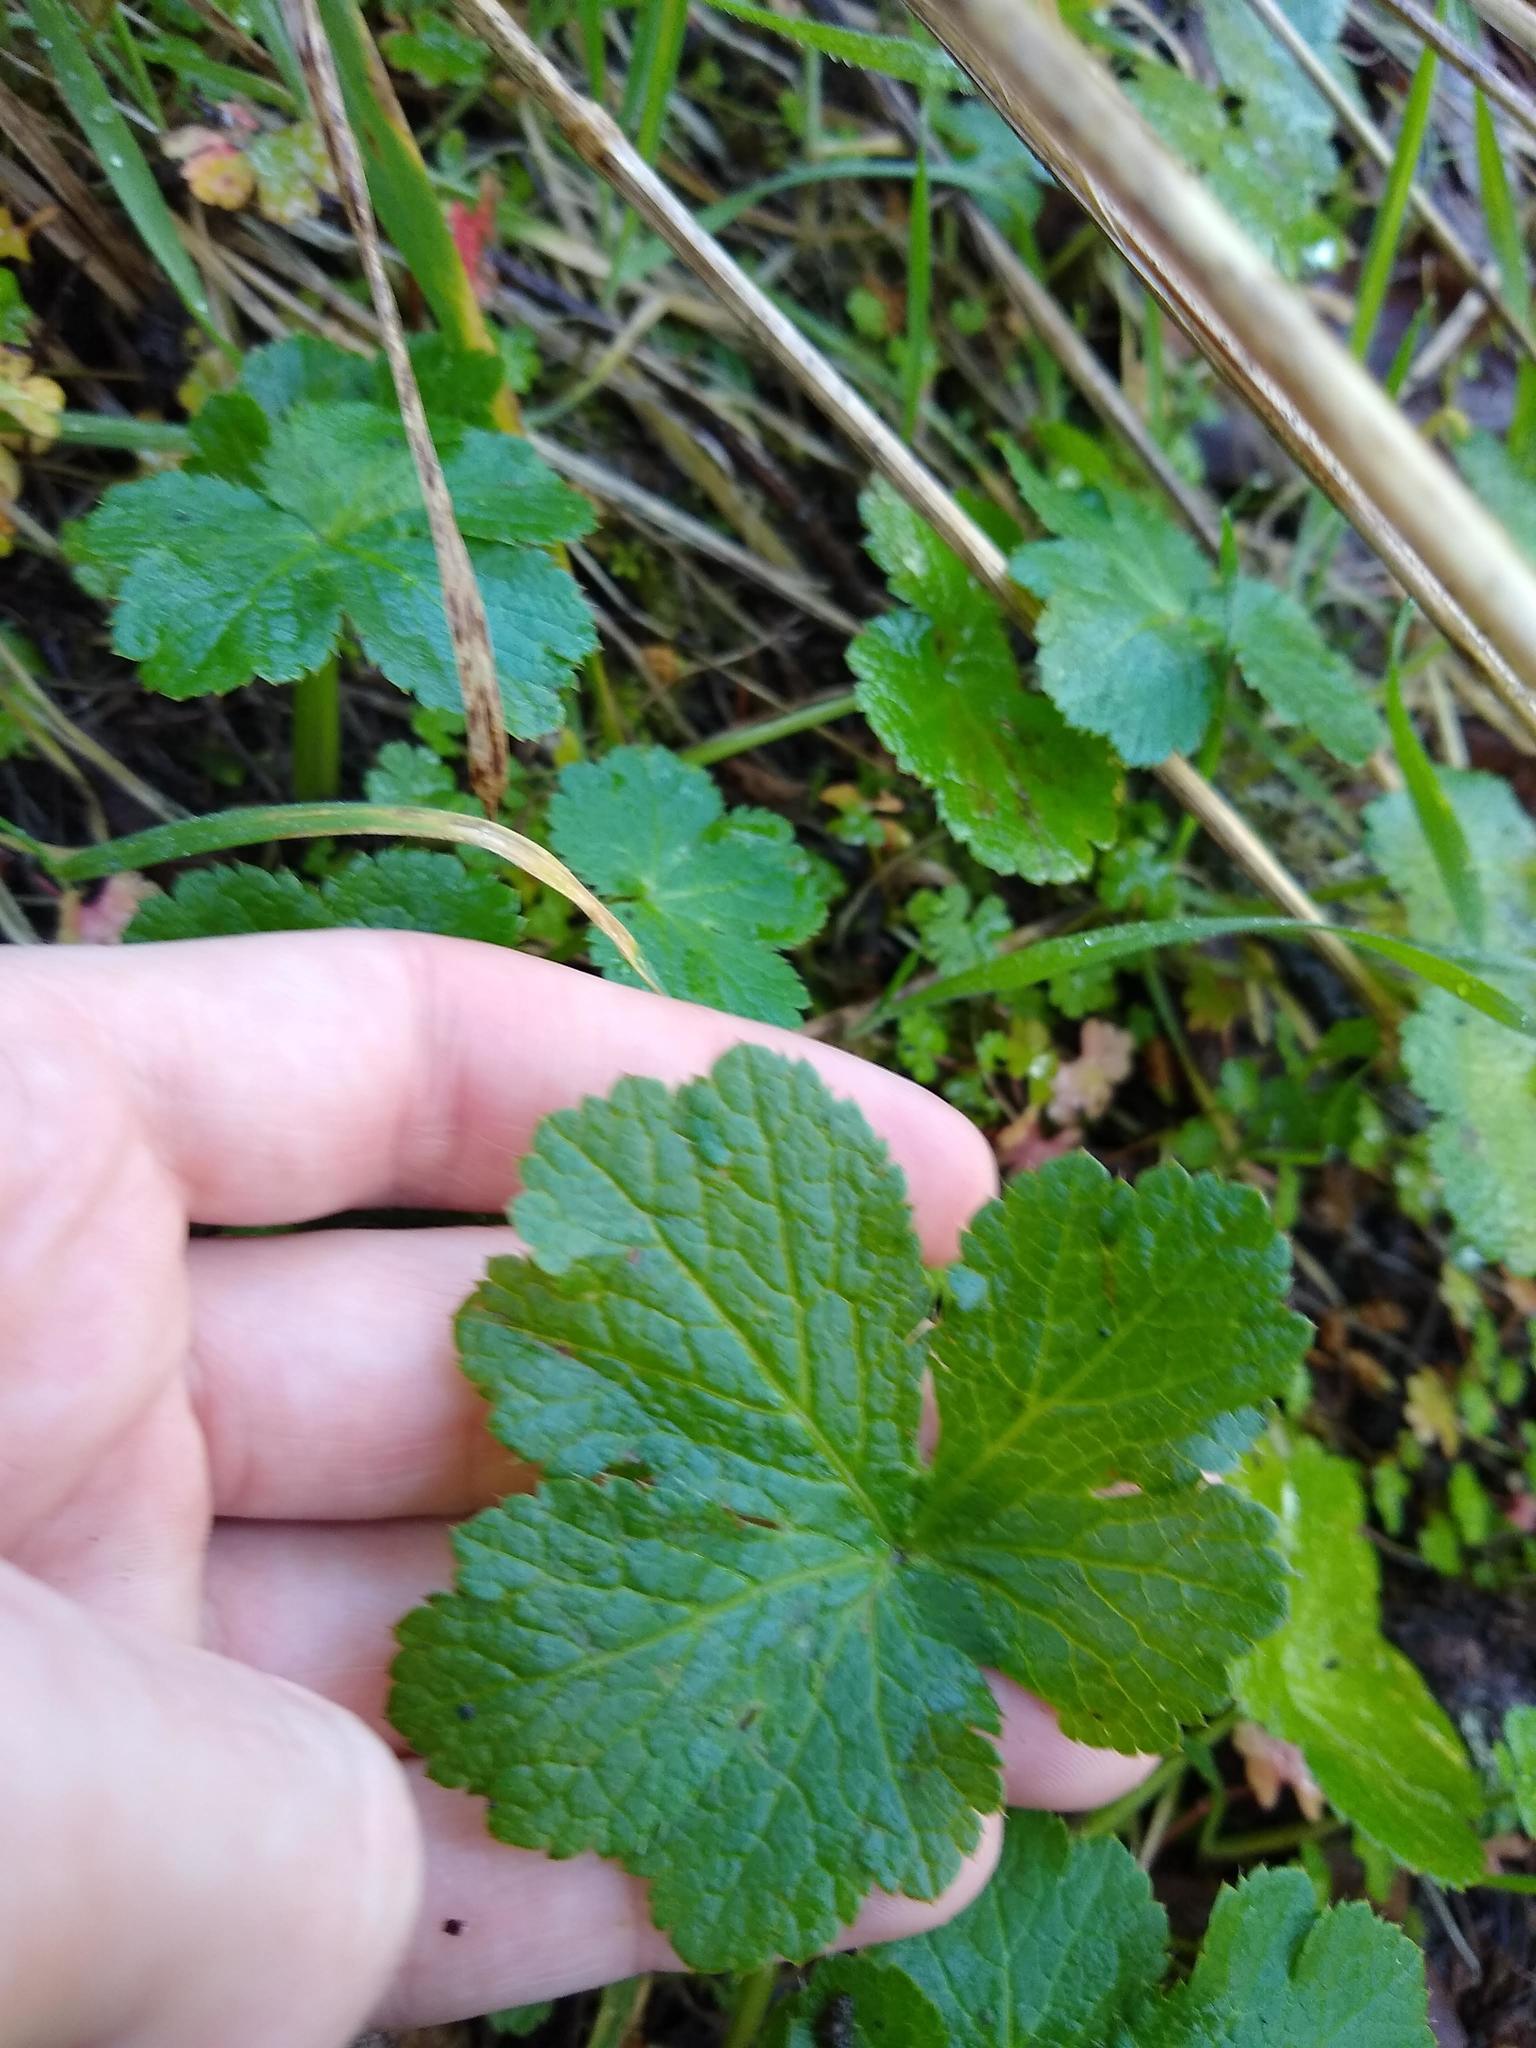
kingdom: Plantae
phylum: Tracheophyta
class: Magnoliopsida
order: Apiales
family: Apiaceae
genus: Sanicula
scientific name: Sanicula crassicaulis
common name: Western snakeroot
